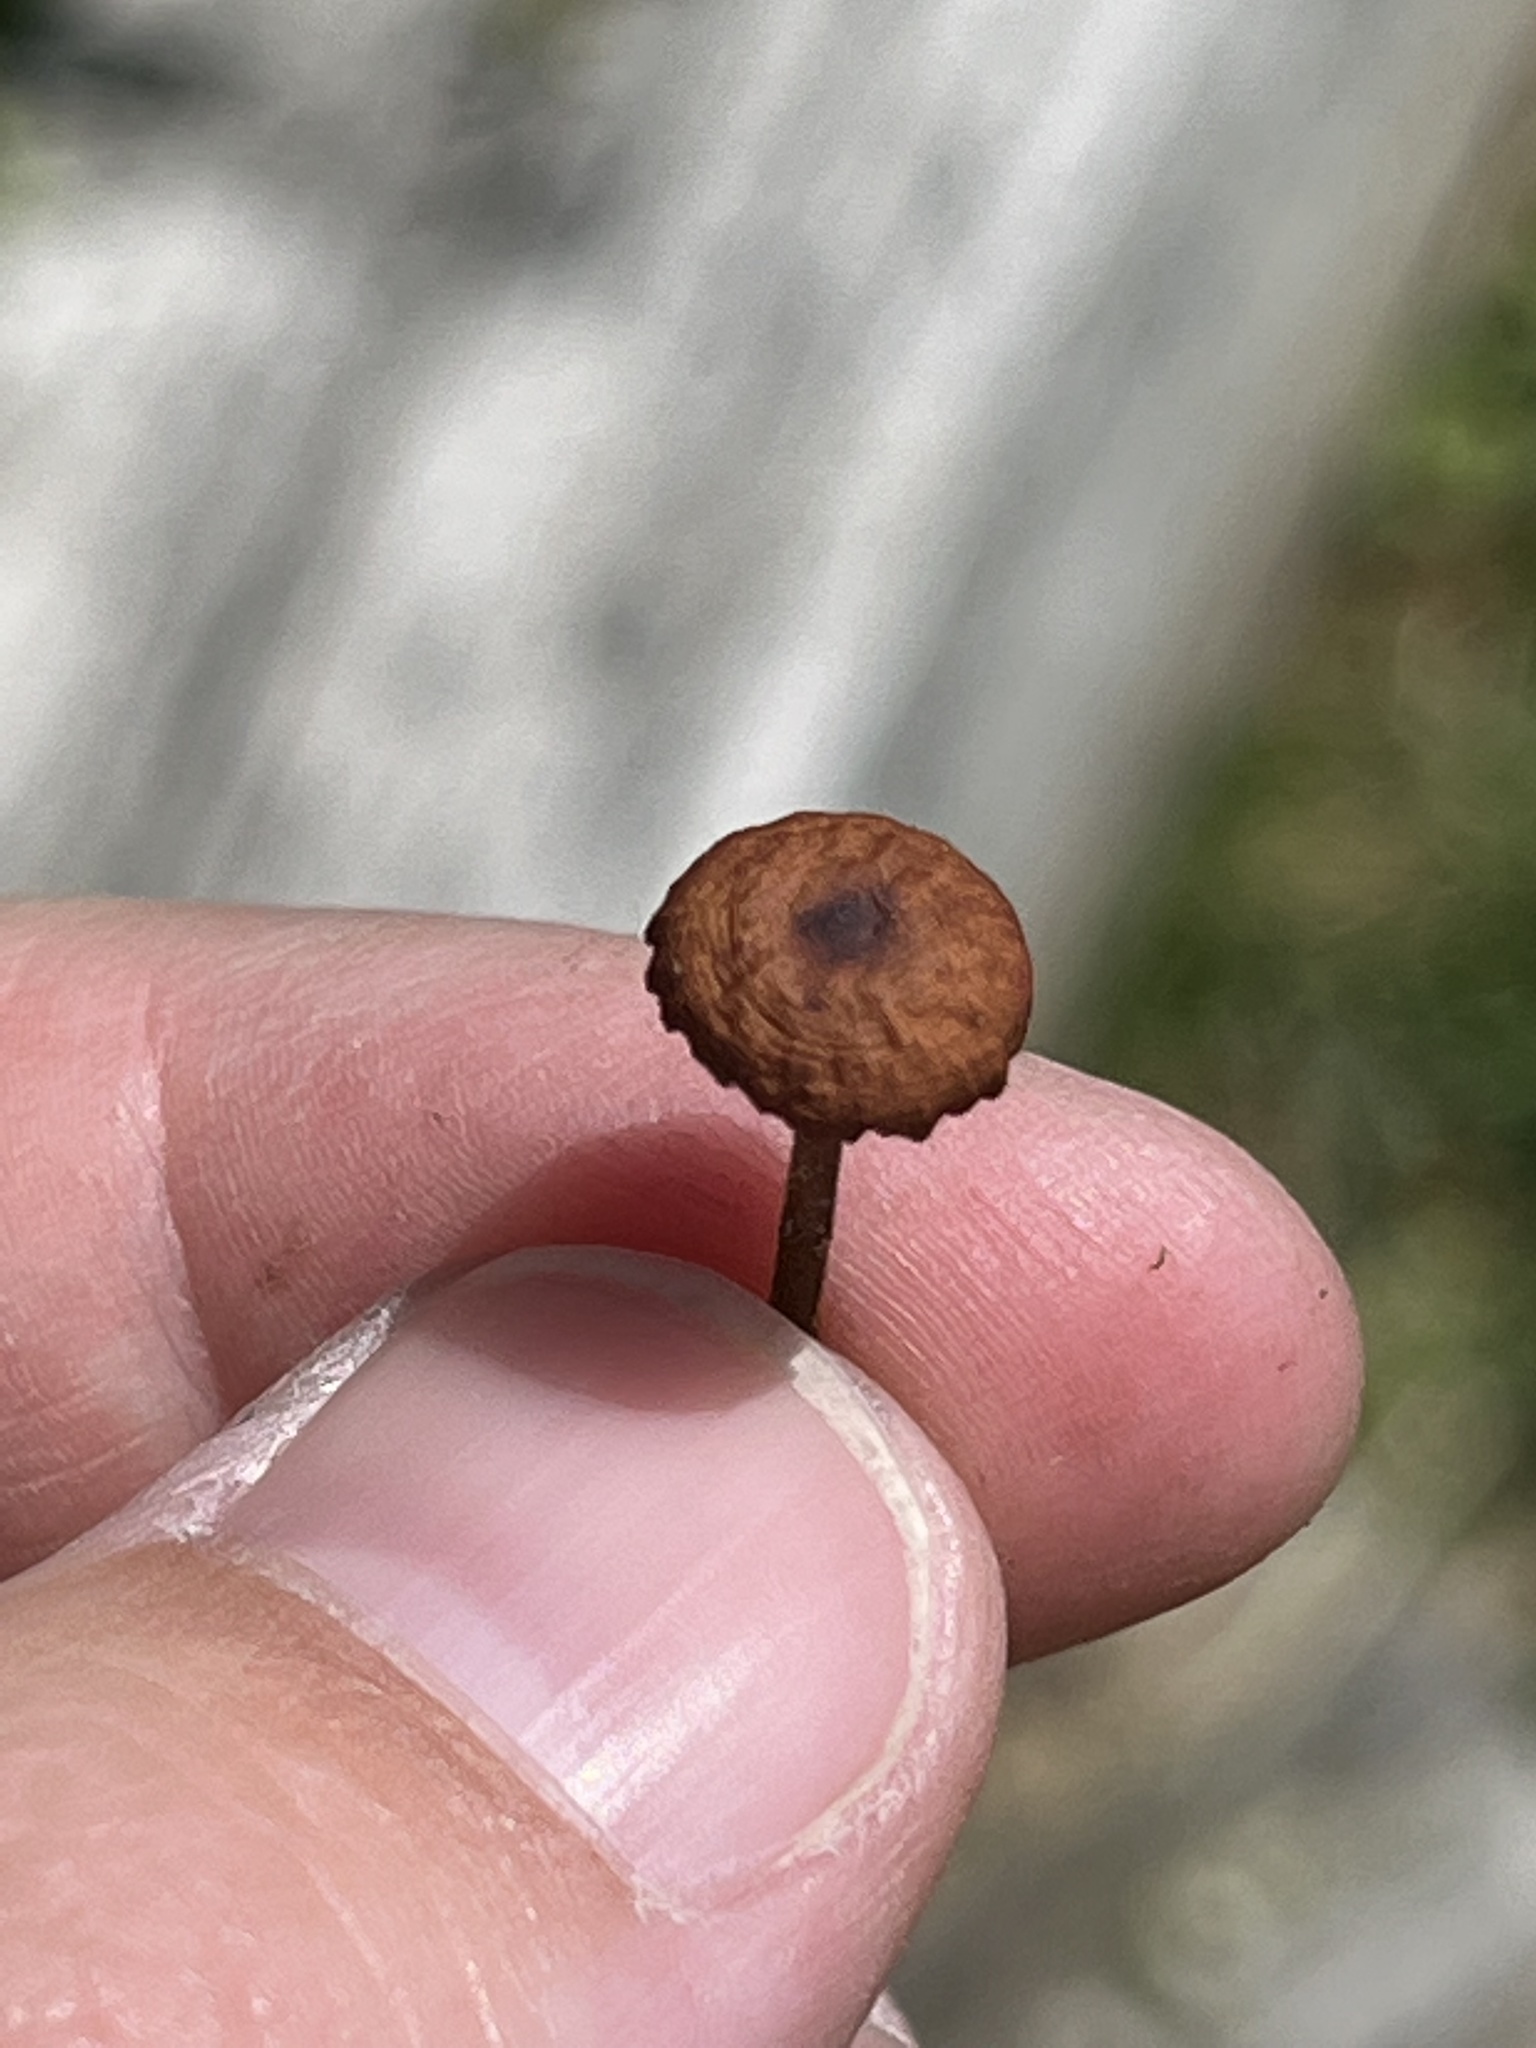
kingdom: Fungi
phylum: Basidiomycota
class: Agaricomycetes
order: Agaricales
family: Physalacriaceae
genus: Rhizomarasmius
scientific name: Rhizomarasmius pyrrhocephalus
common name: Hairy long stem marasmius
